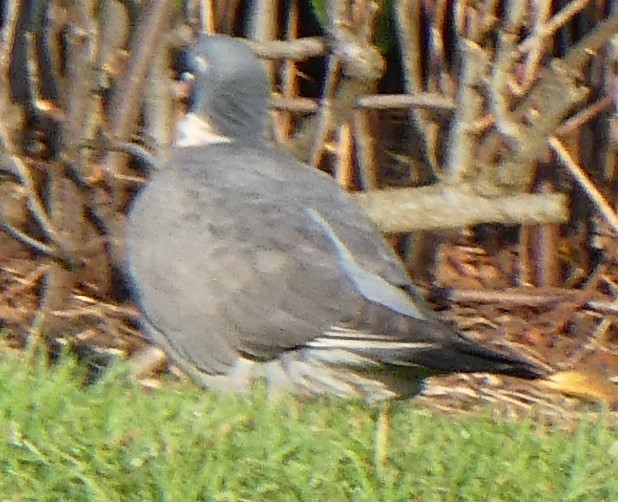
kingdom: Animalia
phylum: Chordata
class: Aves
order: Columbiformes
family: Columbidae
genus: Columba
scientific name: Columba palumbus
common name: Common wood pigeon
